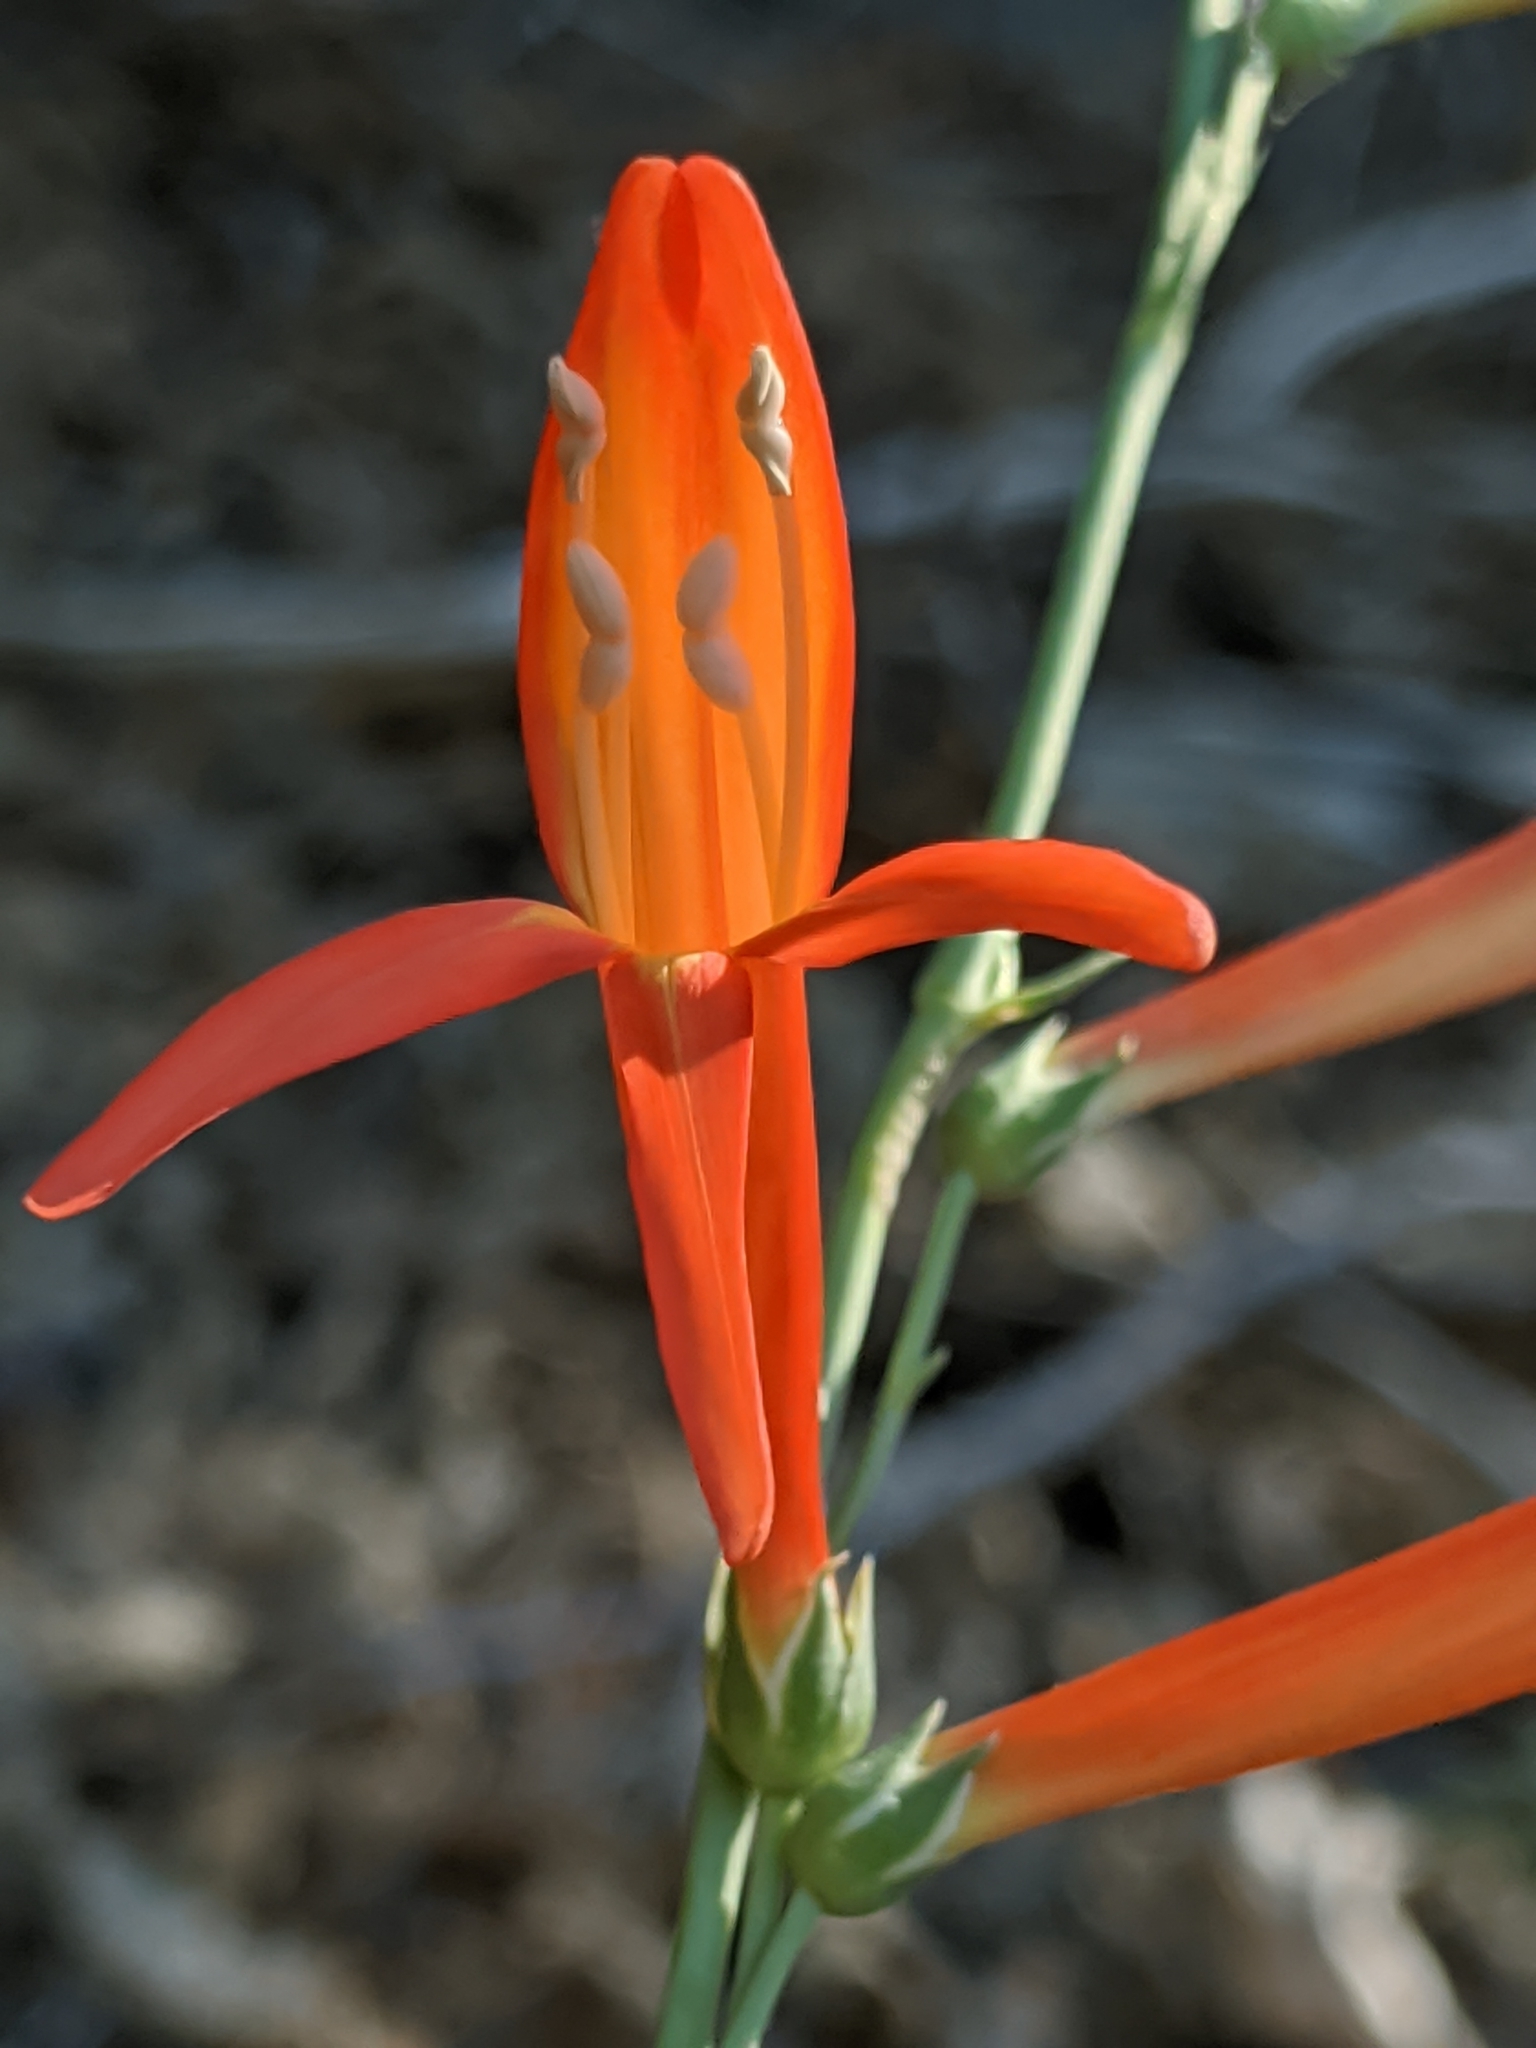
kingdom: Plantae
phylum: Tracheophyta
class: Magnoliopsida
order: Lamiales
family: Plantaginaceae
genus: Penstemon
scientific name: Penstemon labrosus
